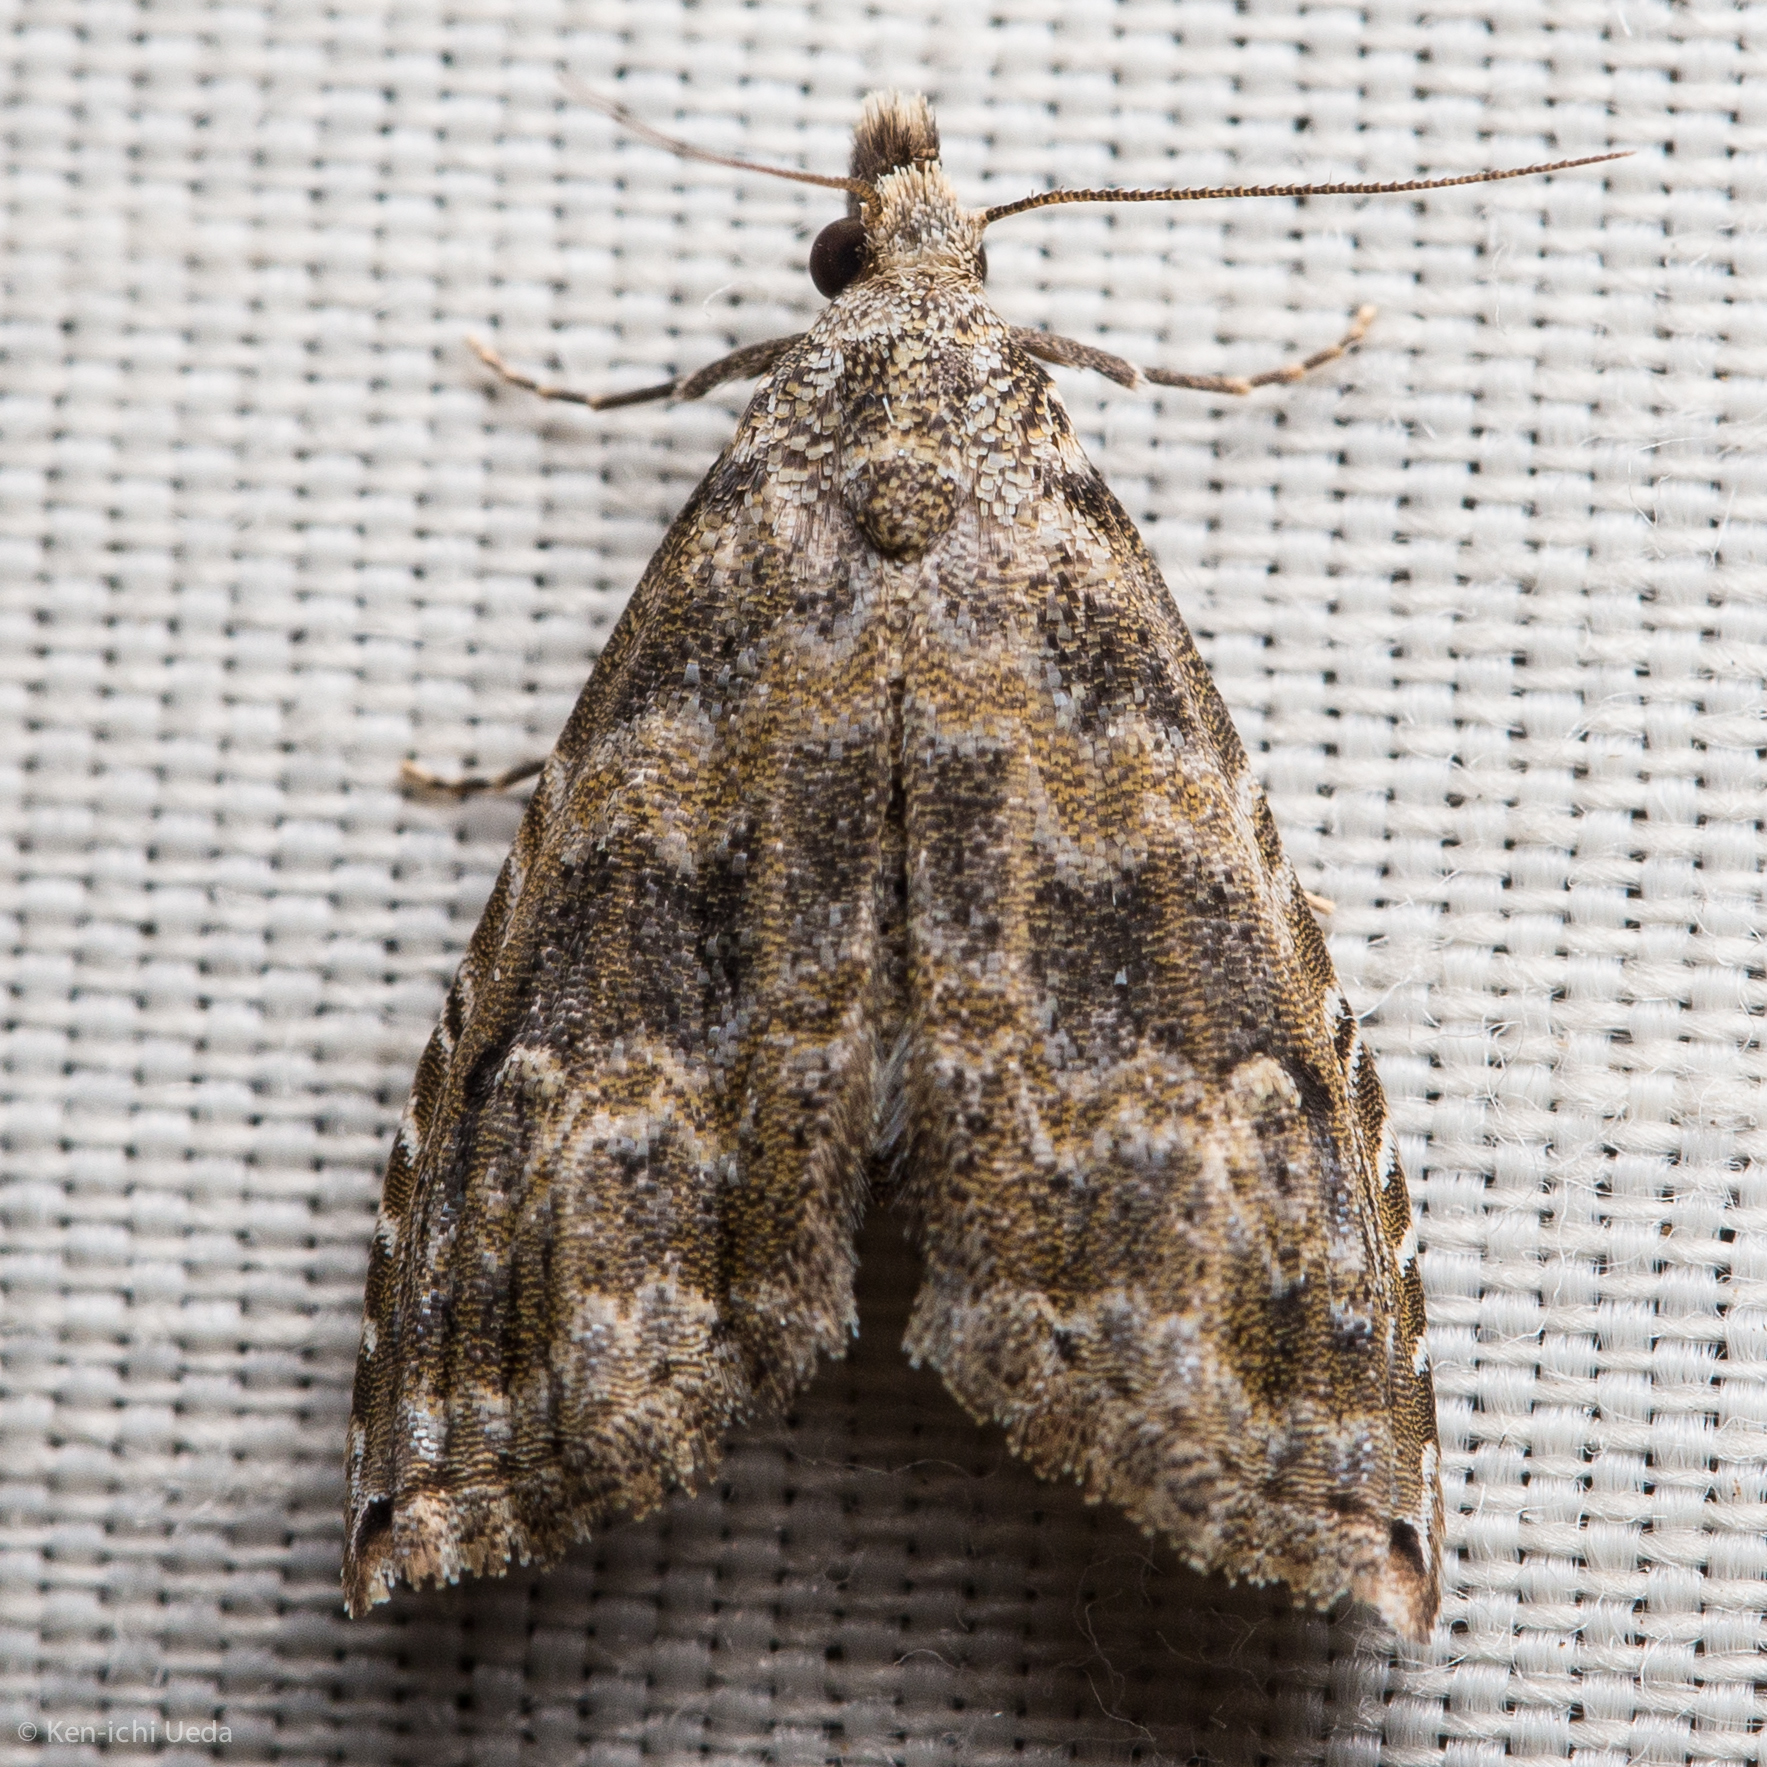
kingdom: Animalia
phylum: Arthropoda
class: Insecta
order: Lepidoptera
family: Noctuidae
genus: Phobolosia
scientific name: Phobolosia anfracta
